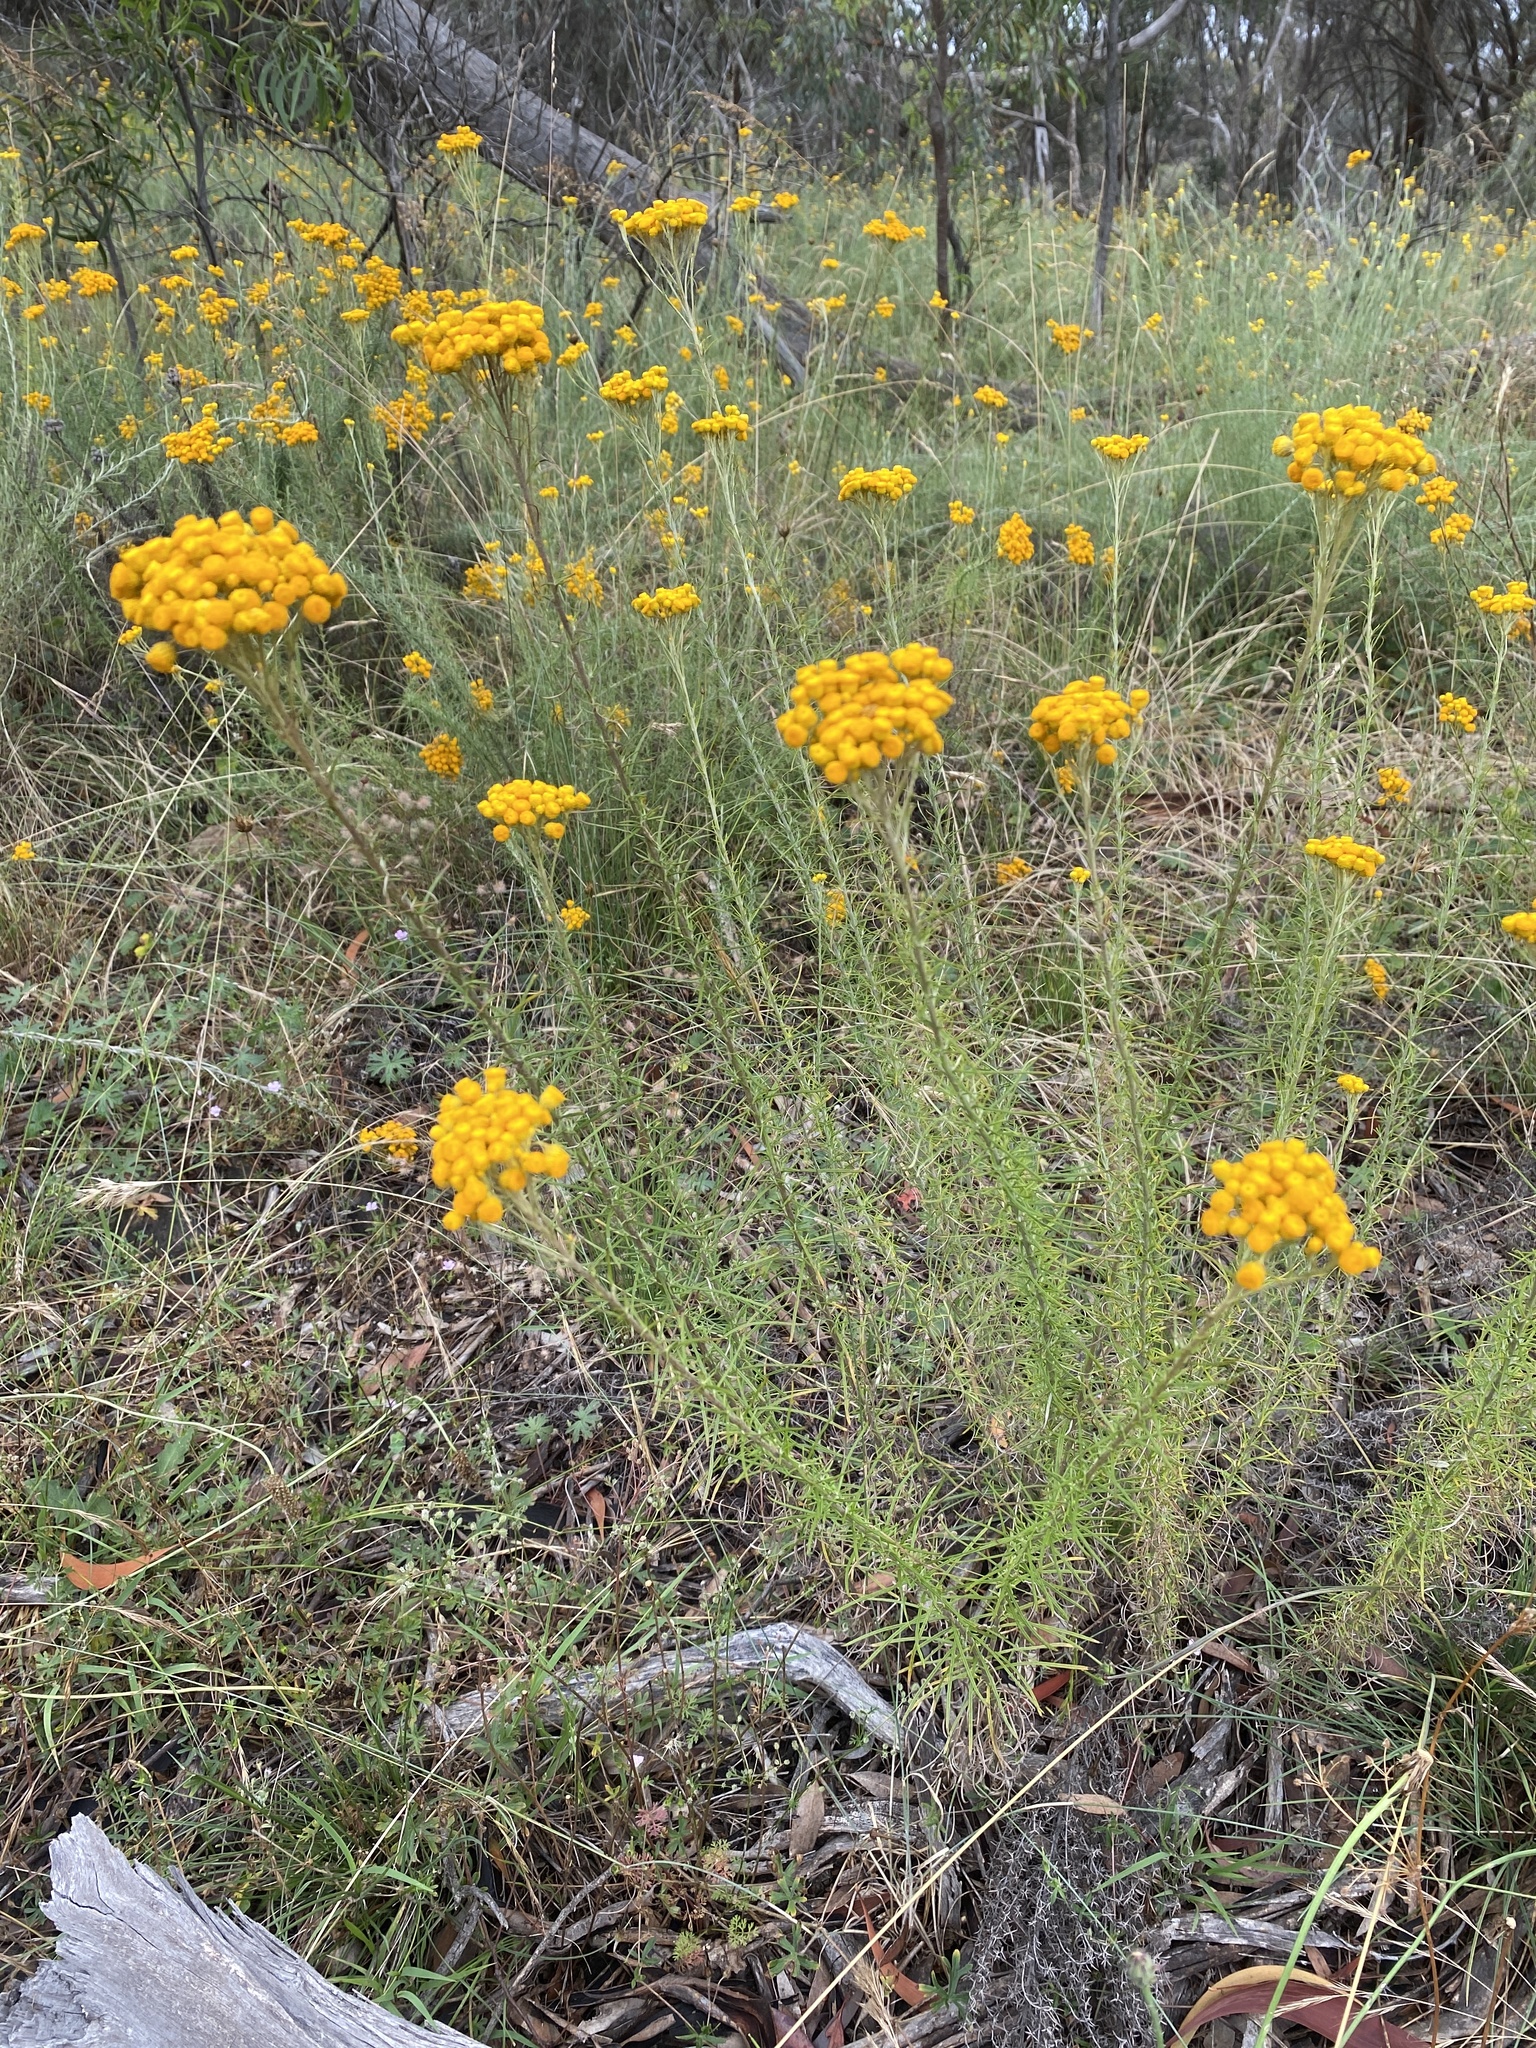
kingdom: Plantae
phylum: Tracheophyta
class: Magnoliopsida
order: Asterales
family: Asteraceae
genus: Chrysocephalum
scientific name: Chrysocephalum semipapposum
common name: Clustered everlasting
